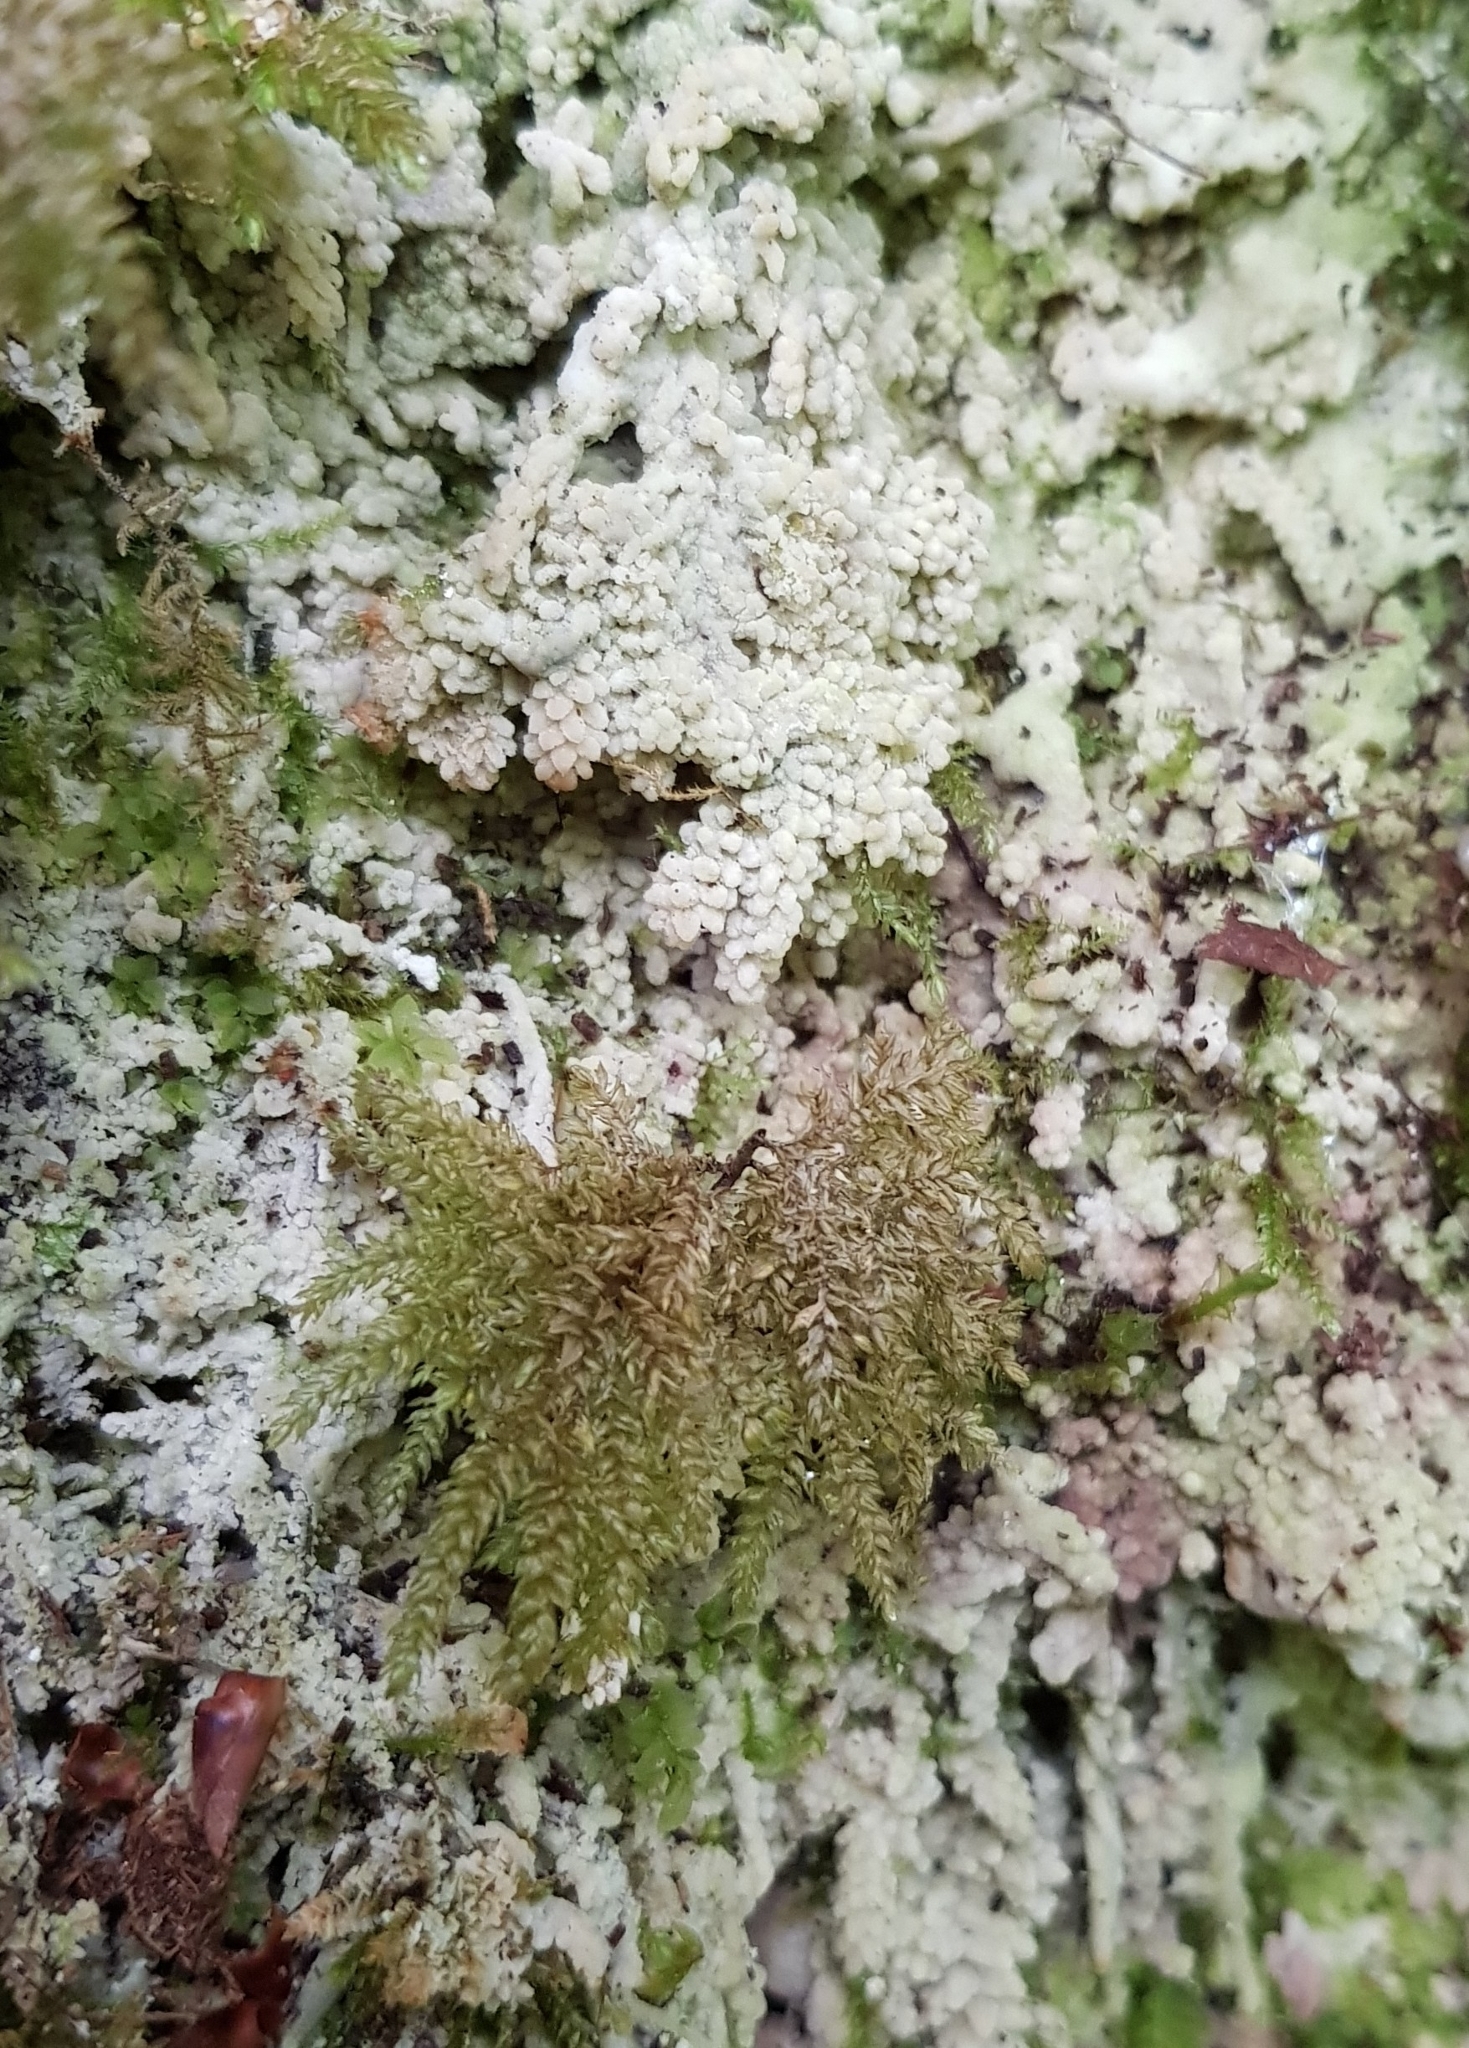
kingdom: Plantae
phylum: Bryophyta
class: Bryopsida
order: Hypnales
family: Neckeraceae
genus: Thamnobryum
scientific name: Thamnobryum alopecurum
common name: Fox-tail feather-moss
